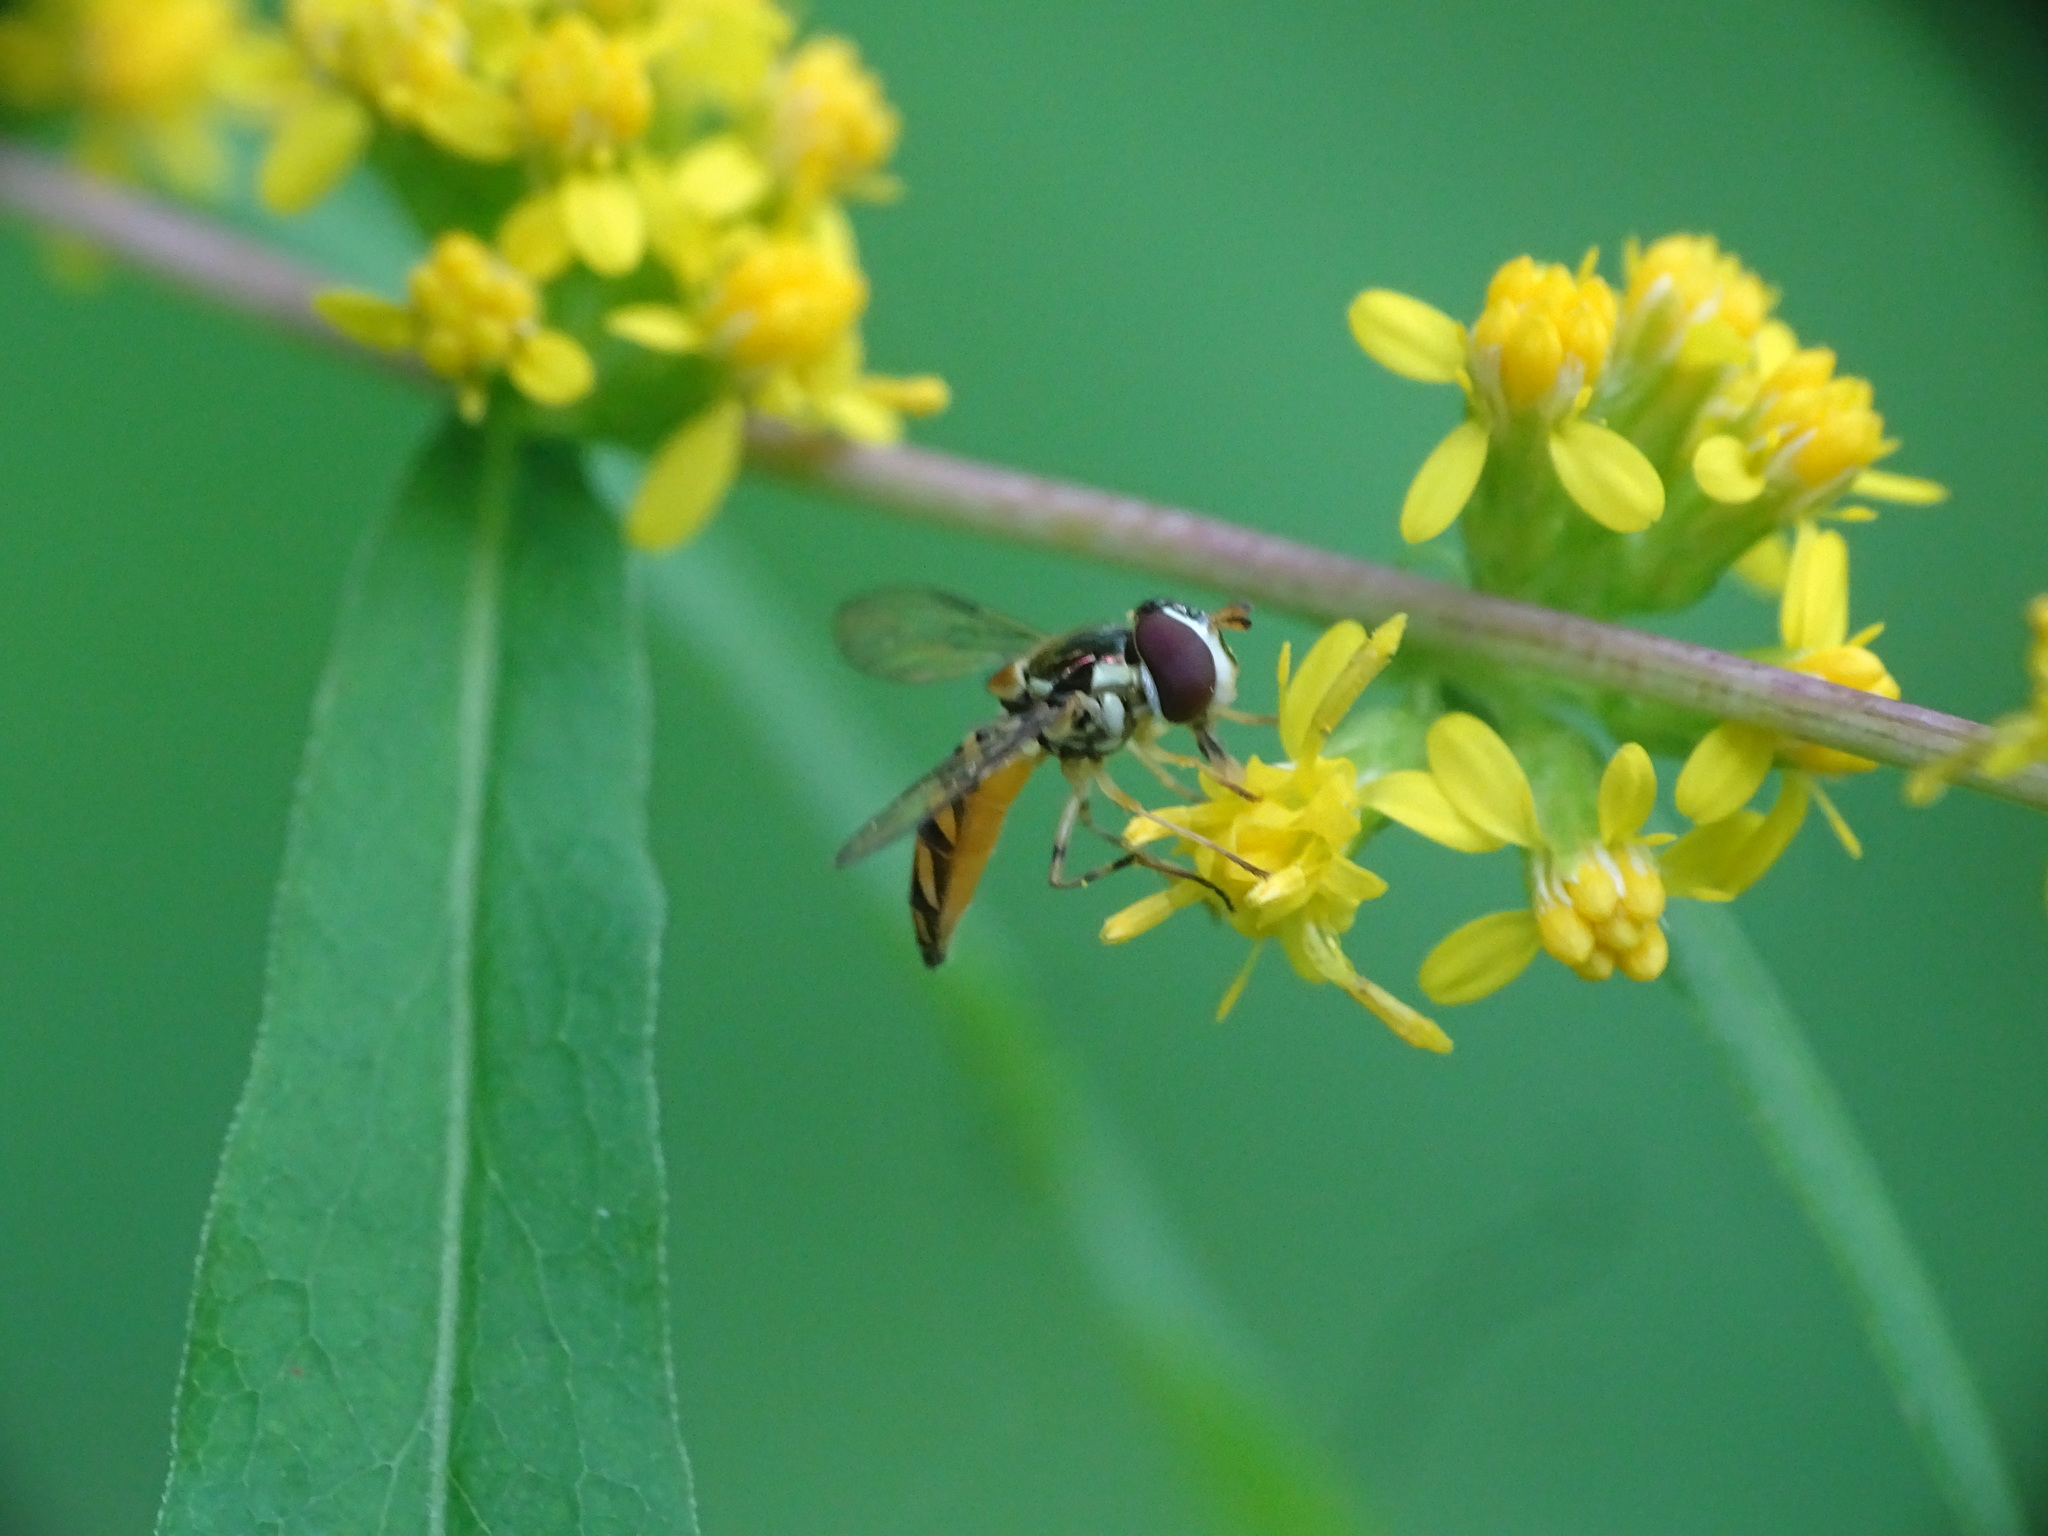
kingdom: Animalia
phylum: Arthropoda
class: Insecta
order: Diptera
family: Syrphidae
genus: Allograpta
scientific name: Allograpta obliqua
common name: Common oblique syrphid
